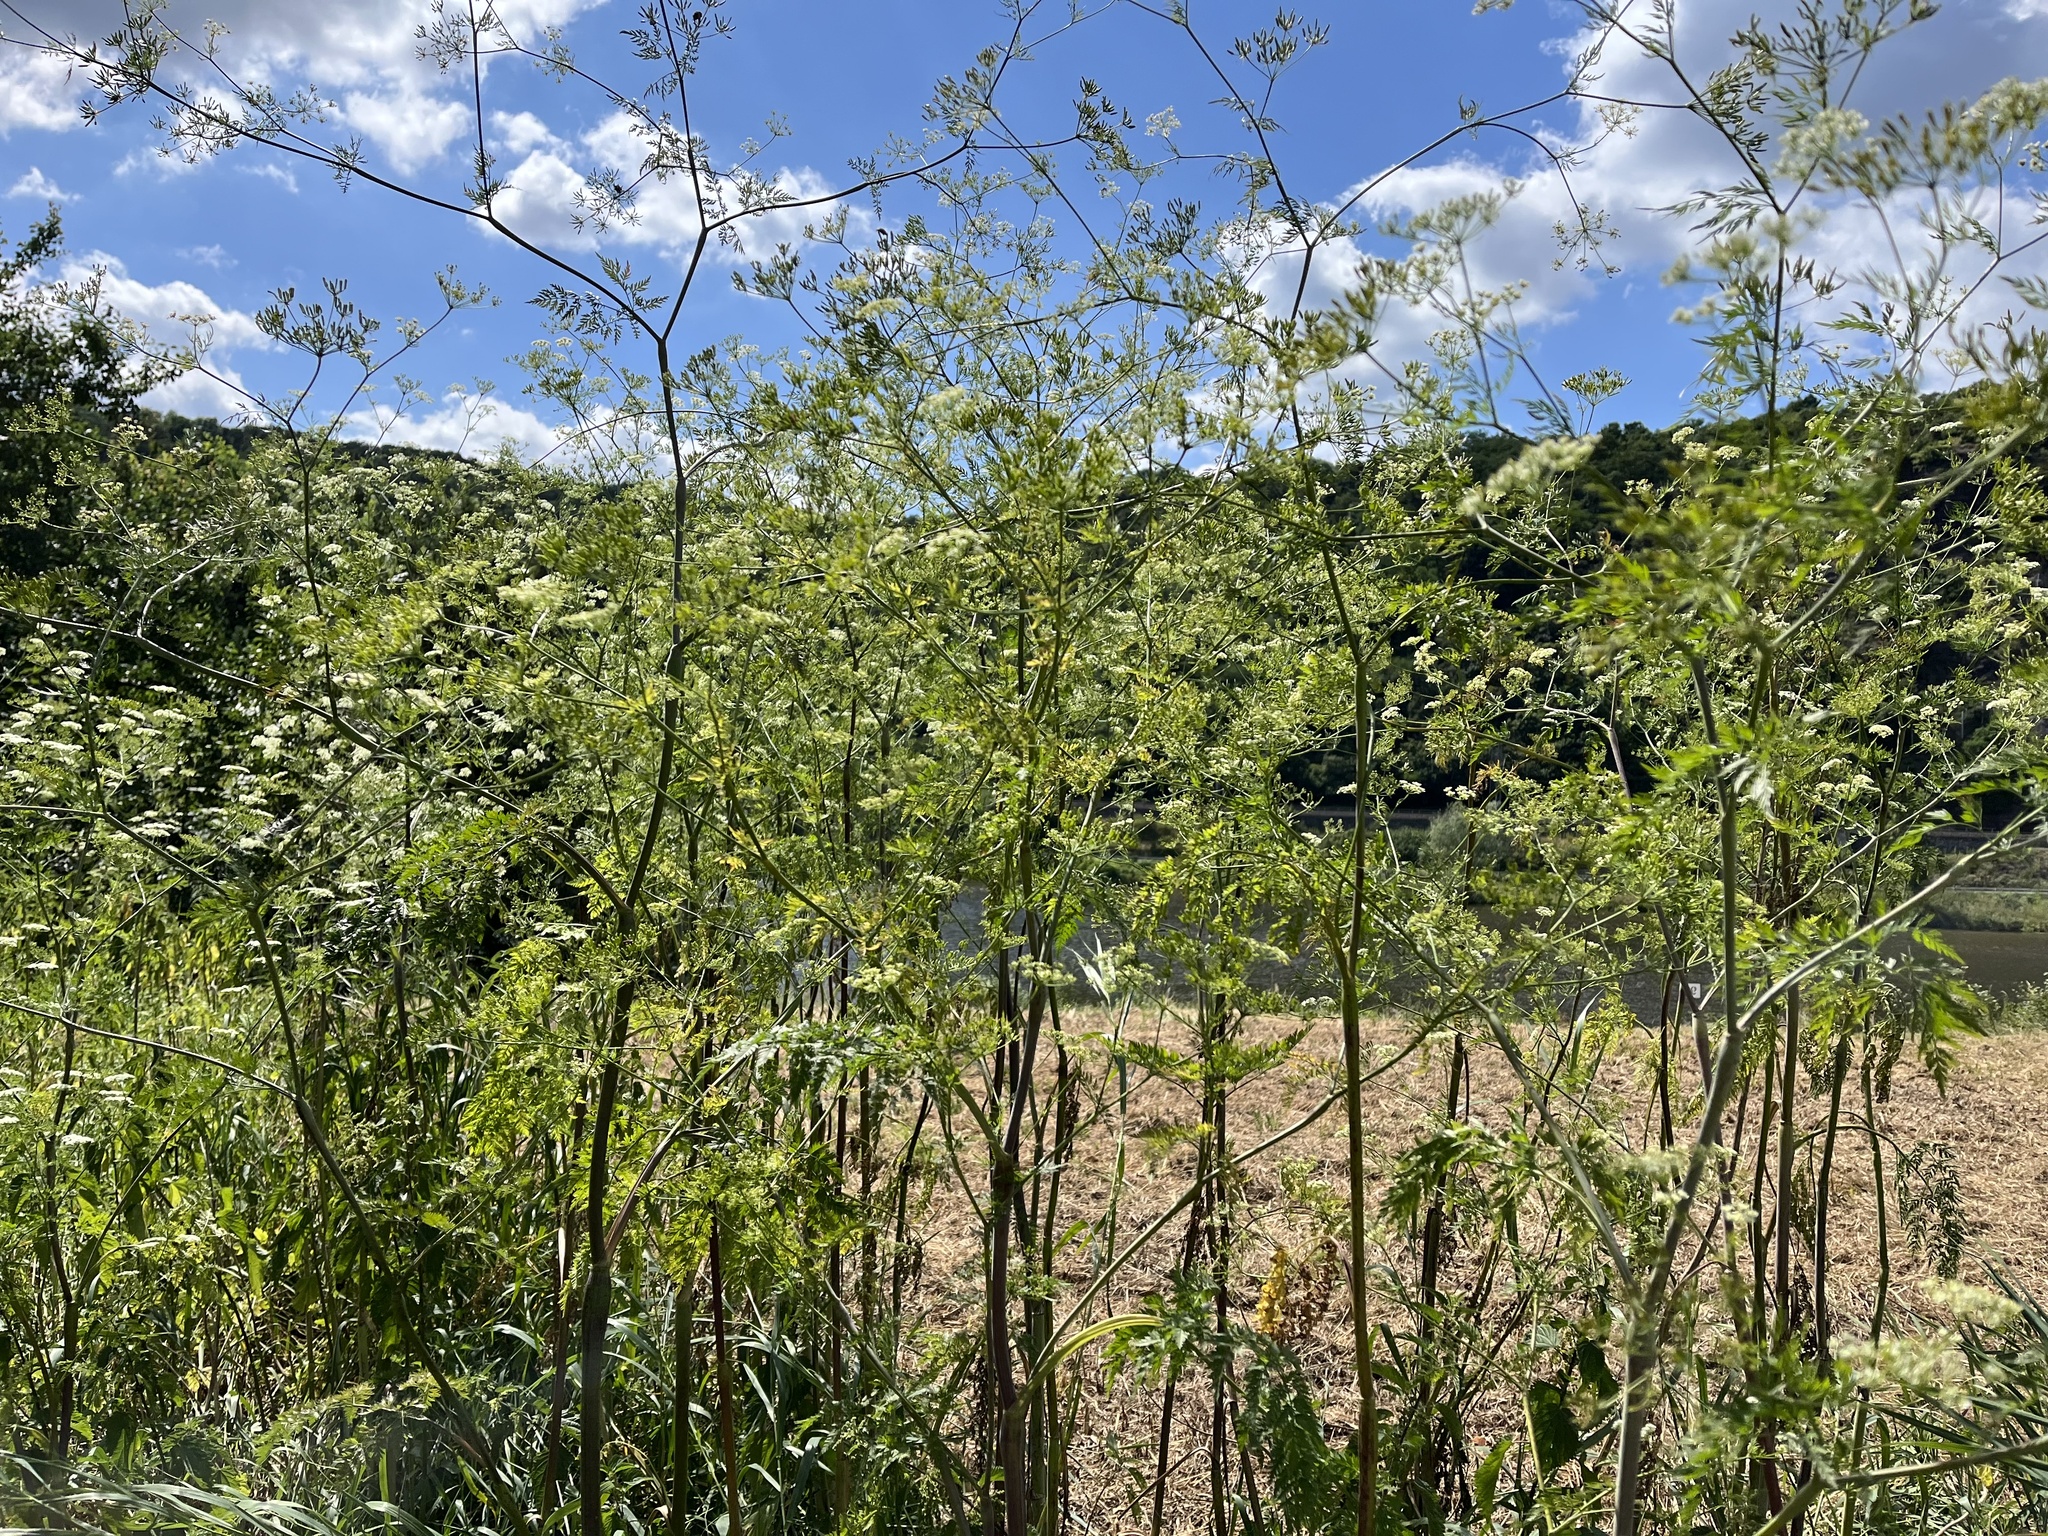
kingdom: Plantae
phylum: Tracheophyta
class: Magnoliopsida
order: Apiales
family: Apiaceae
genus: Chaerophyllum
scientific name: Chaerophyllum bulbosum
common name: Bulbous chervil
